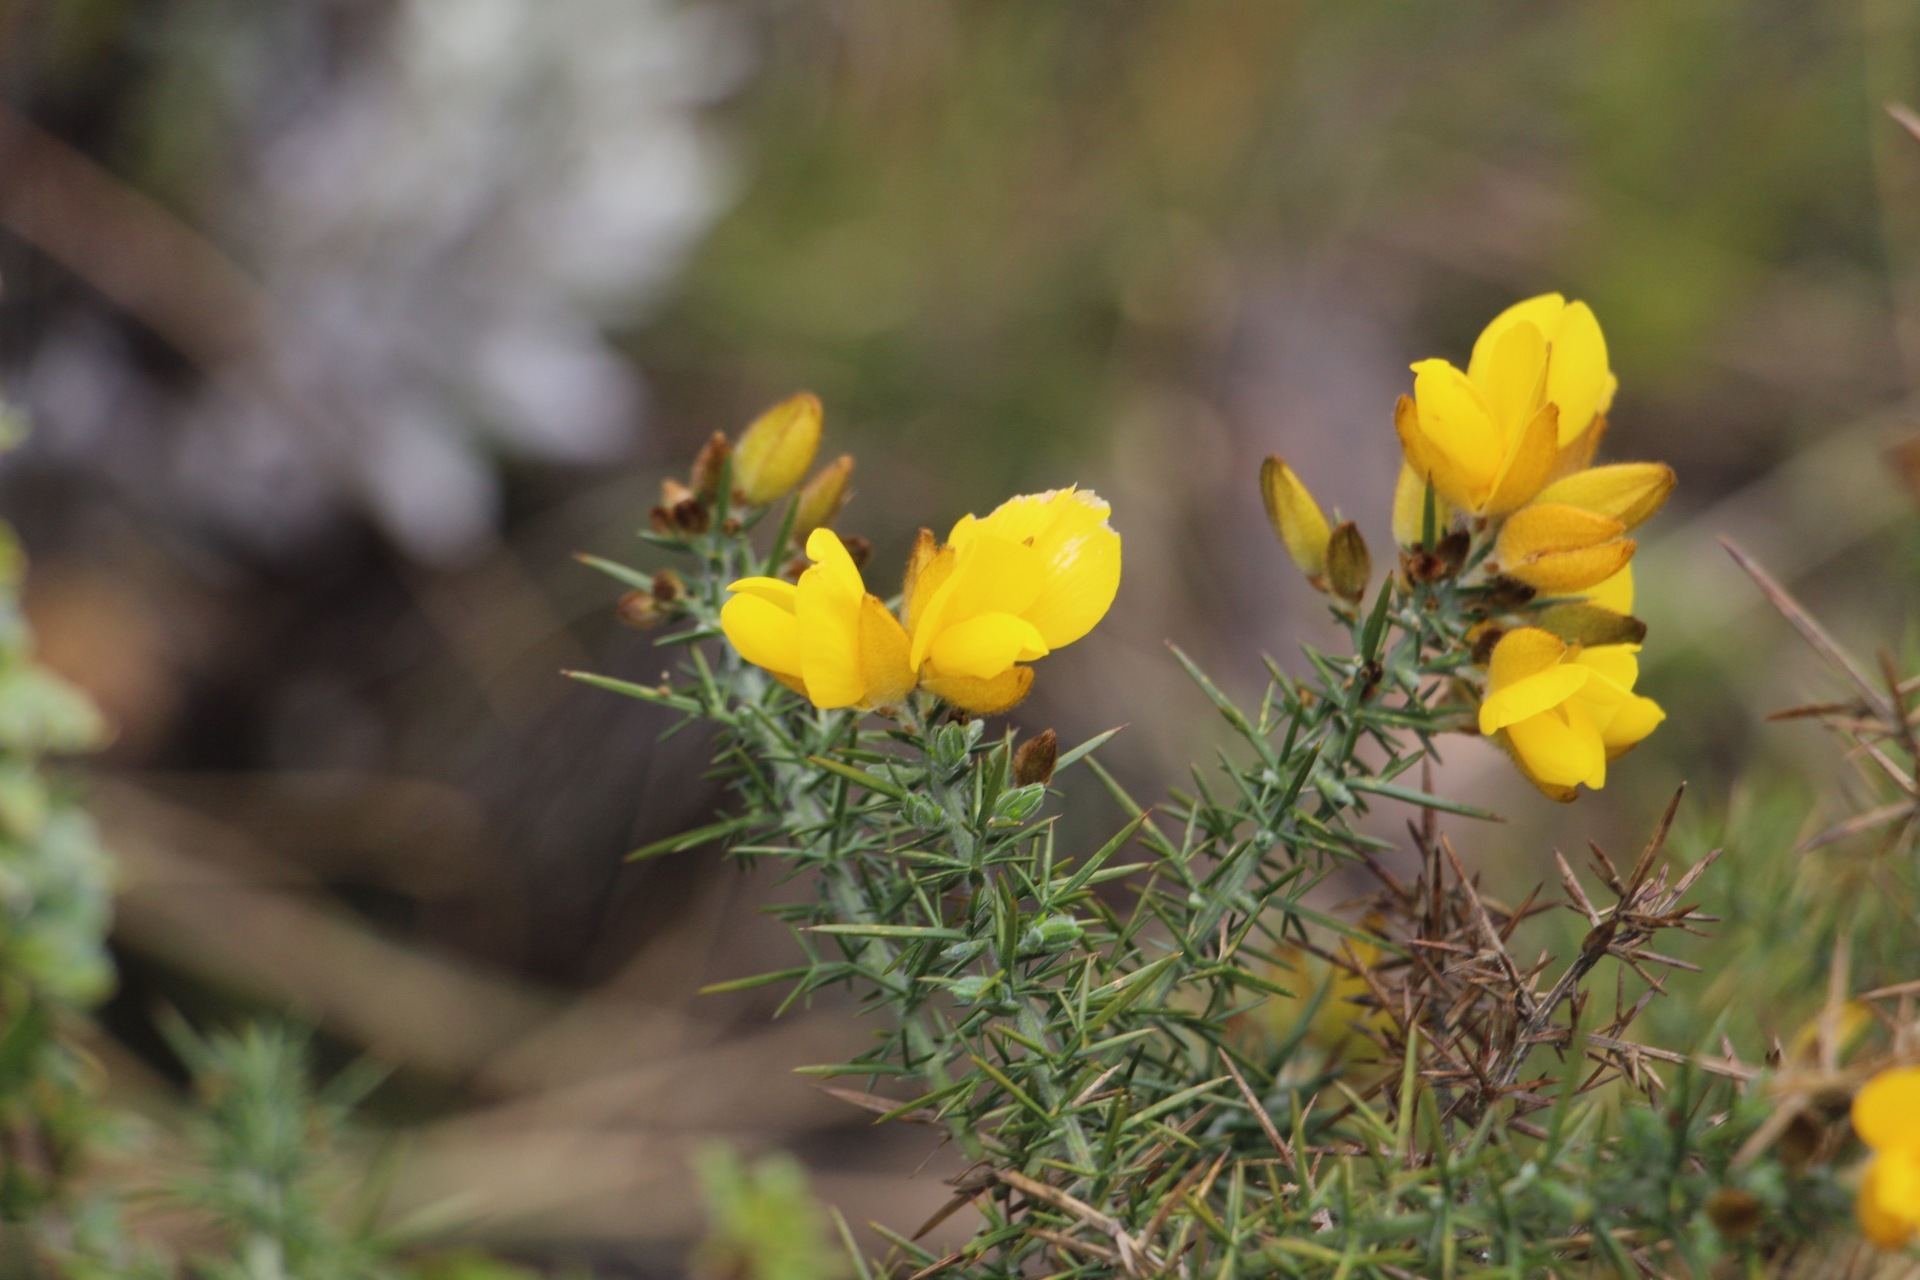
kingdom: Plantae
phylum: Tracheophyta
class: Magnoliopsida
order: Fabales
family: Fabaceae
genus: Ulex
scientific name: Ulex europaeus
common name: Common gorse
